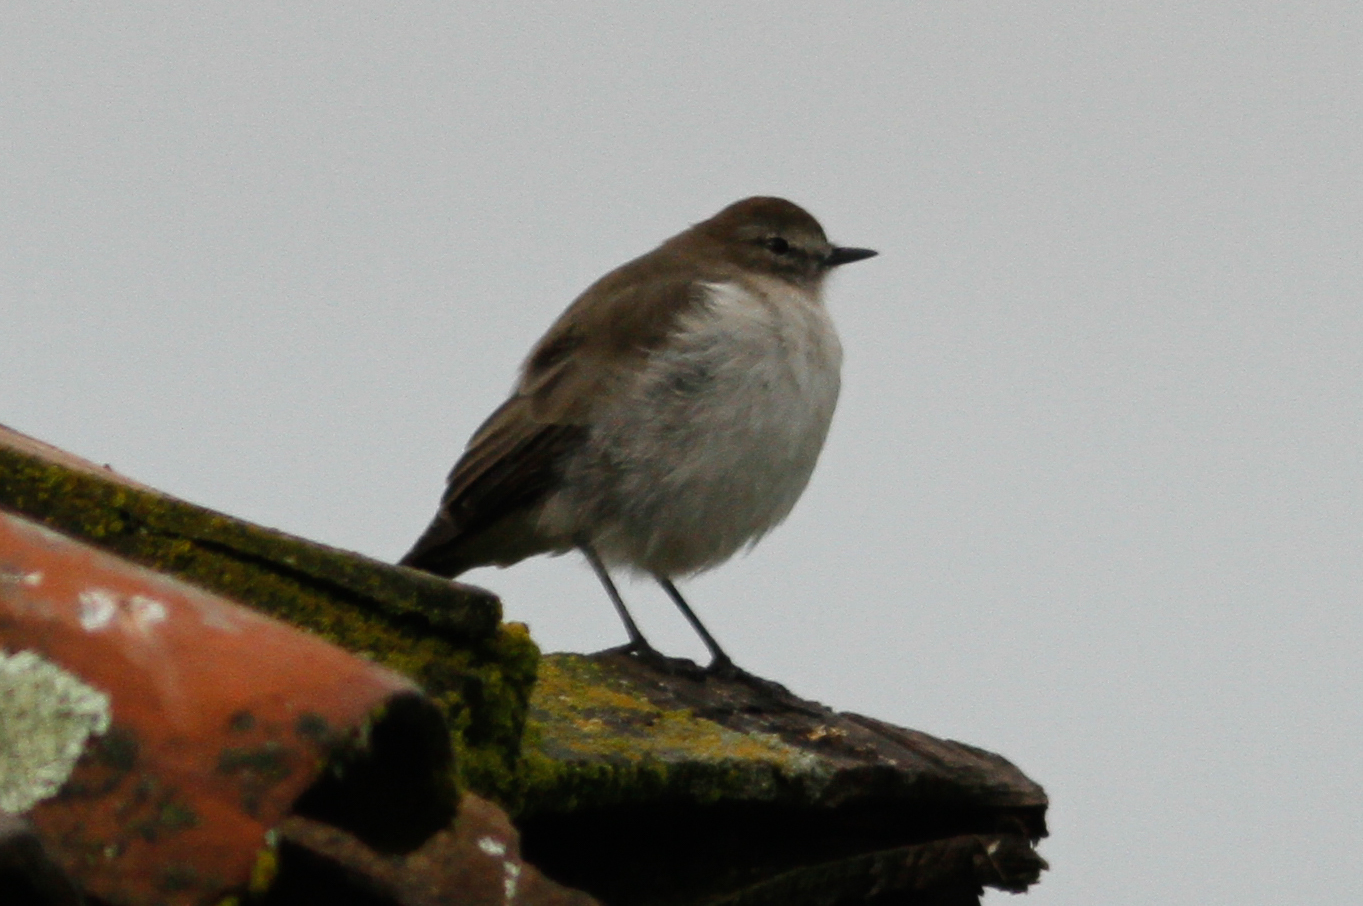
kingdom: Animalia
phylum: Chordata
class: Aves
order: Passeriformes
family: Tyrannidae
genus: Muscisaxicola
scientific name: Muscisaxicola alpinus
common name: Paramo ground tyrant
